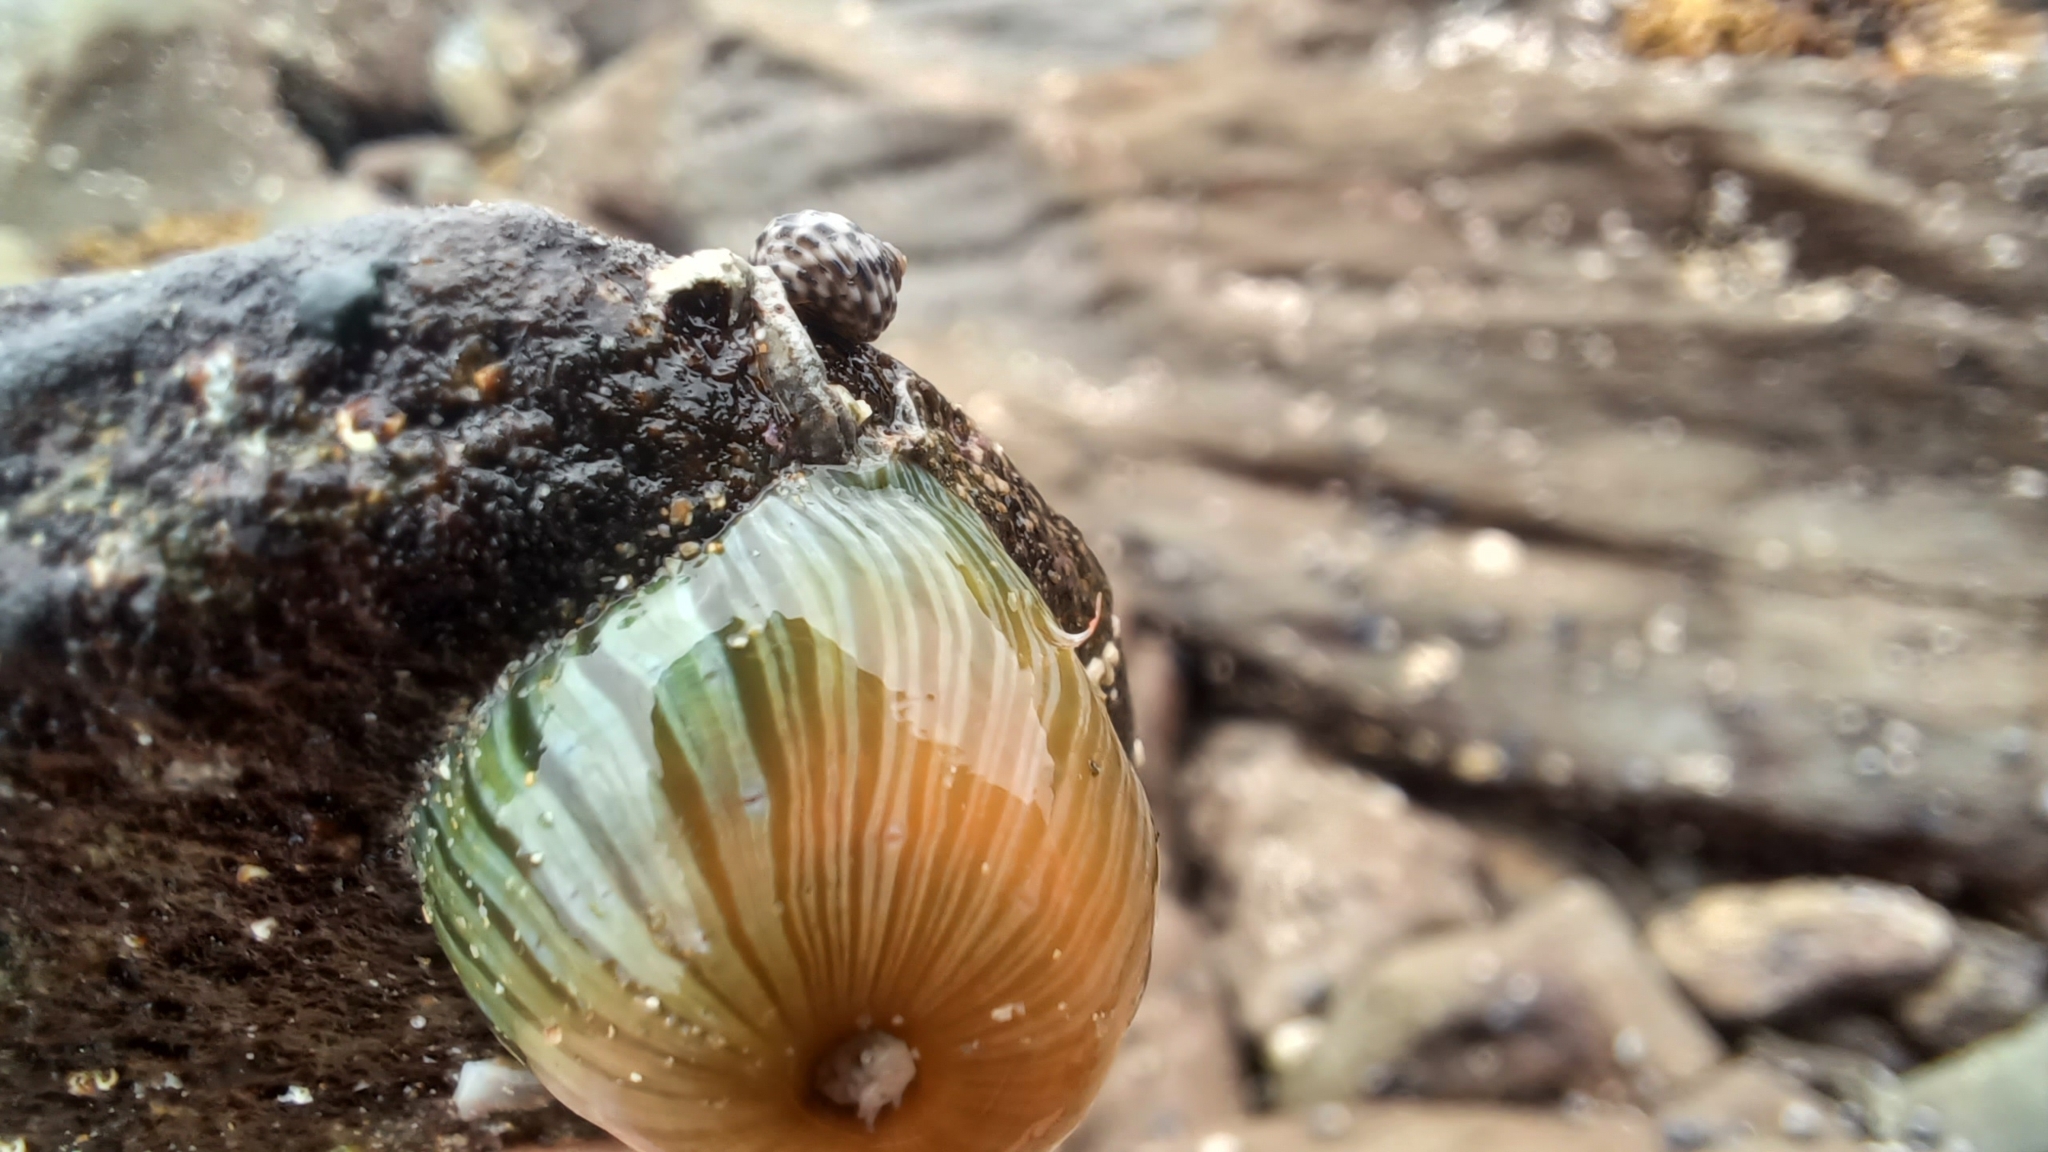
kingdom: Animalia
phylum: Cnidaria
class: Anthozoa
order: Actiniaria
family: Sagartiidae
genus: Anthothoe
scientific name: Anthothoe albocincta
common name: Orange striped anemone
